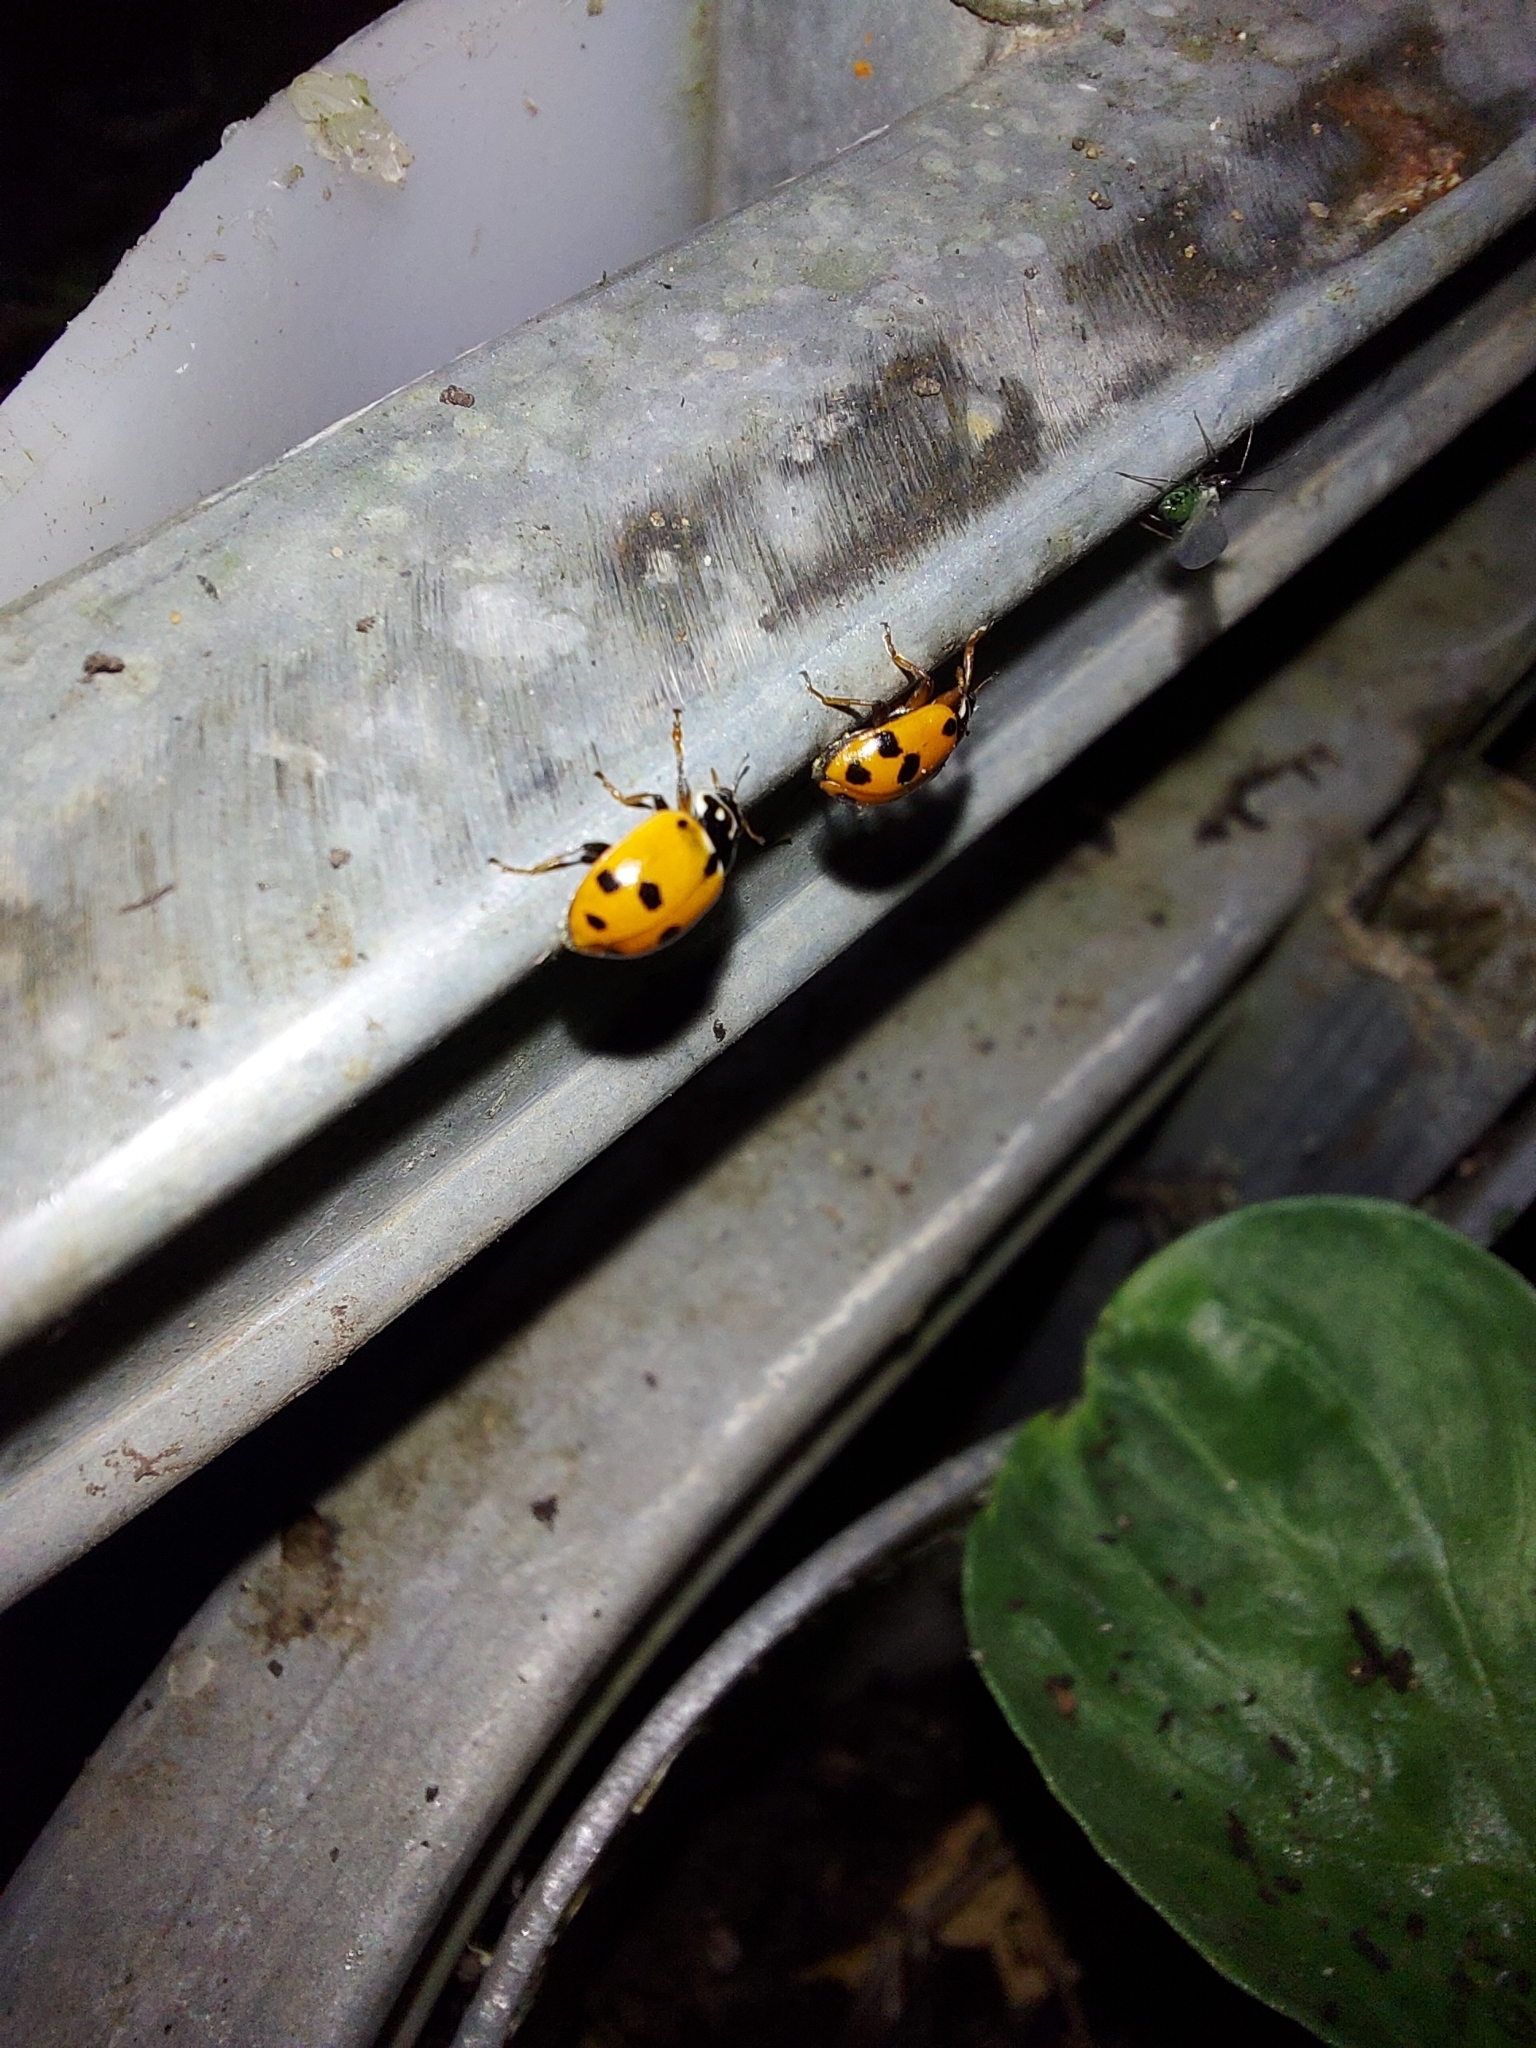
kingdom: Animalia
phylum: Arthropoda
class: Insecta
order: Coleoptera
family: Coccinellidae
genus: Hippodamia
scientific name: Hippodamia variegata
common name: Ladybird beetle
